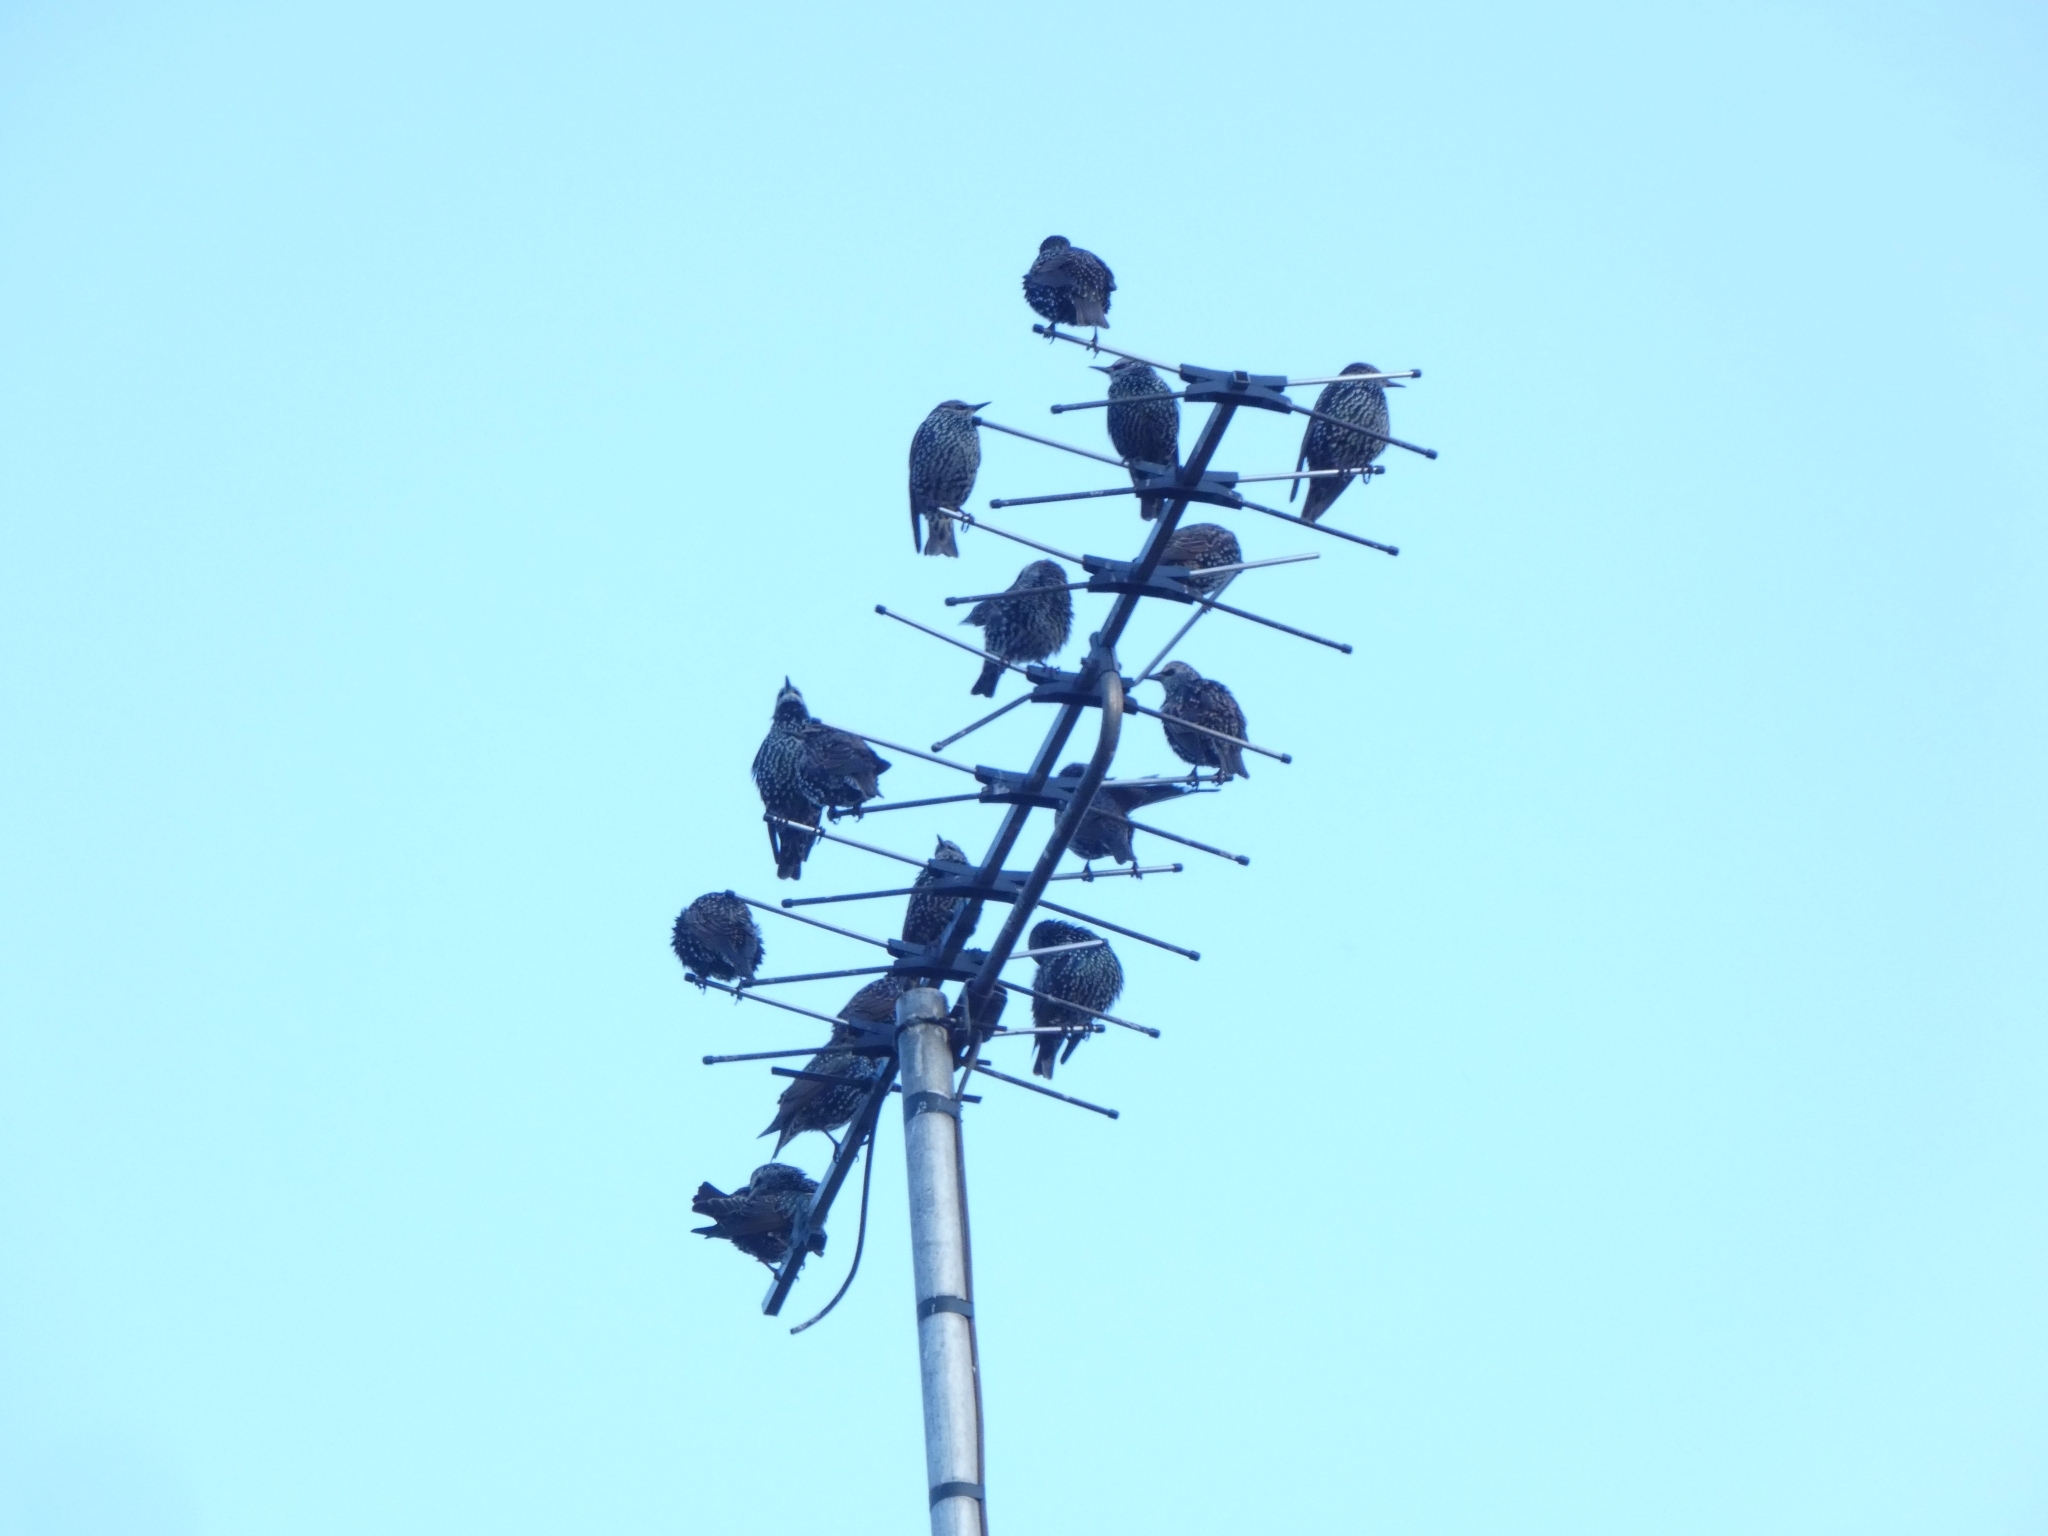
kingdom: Animalia
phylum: Chordata
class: Aves
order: Passeriformes
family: Sturnidae
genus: Sturnus
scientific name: Sturnus vulgaris
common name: Common starling
